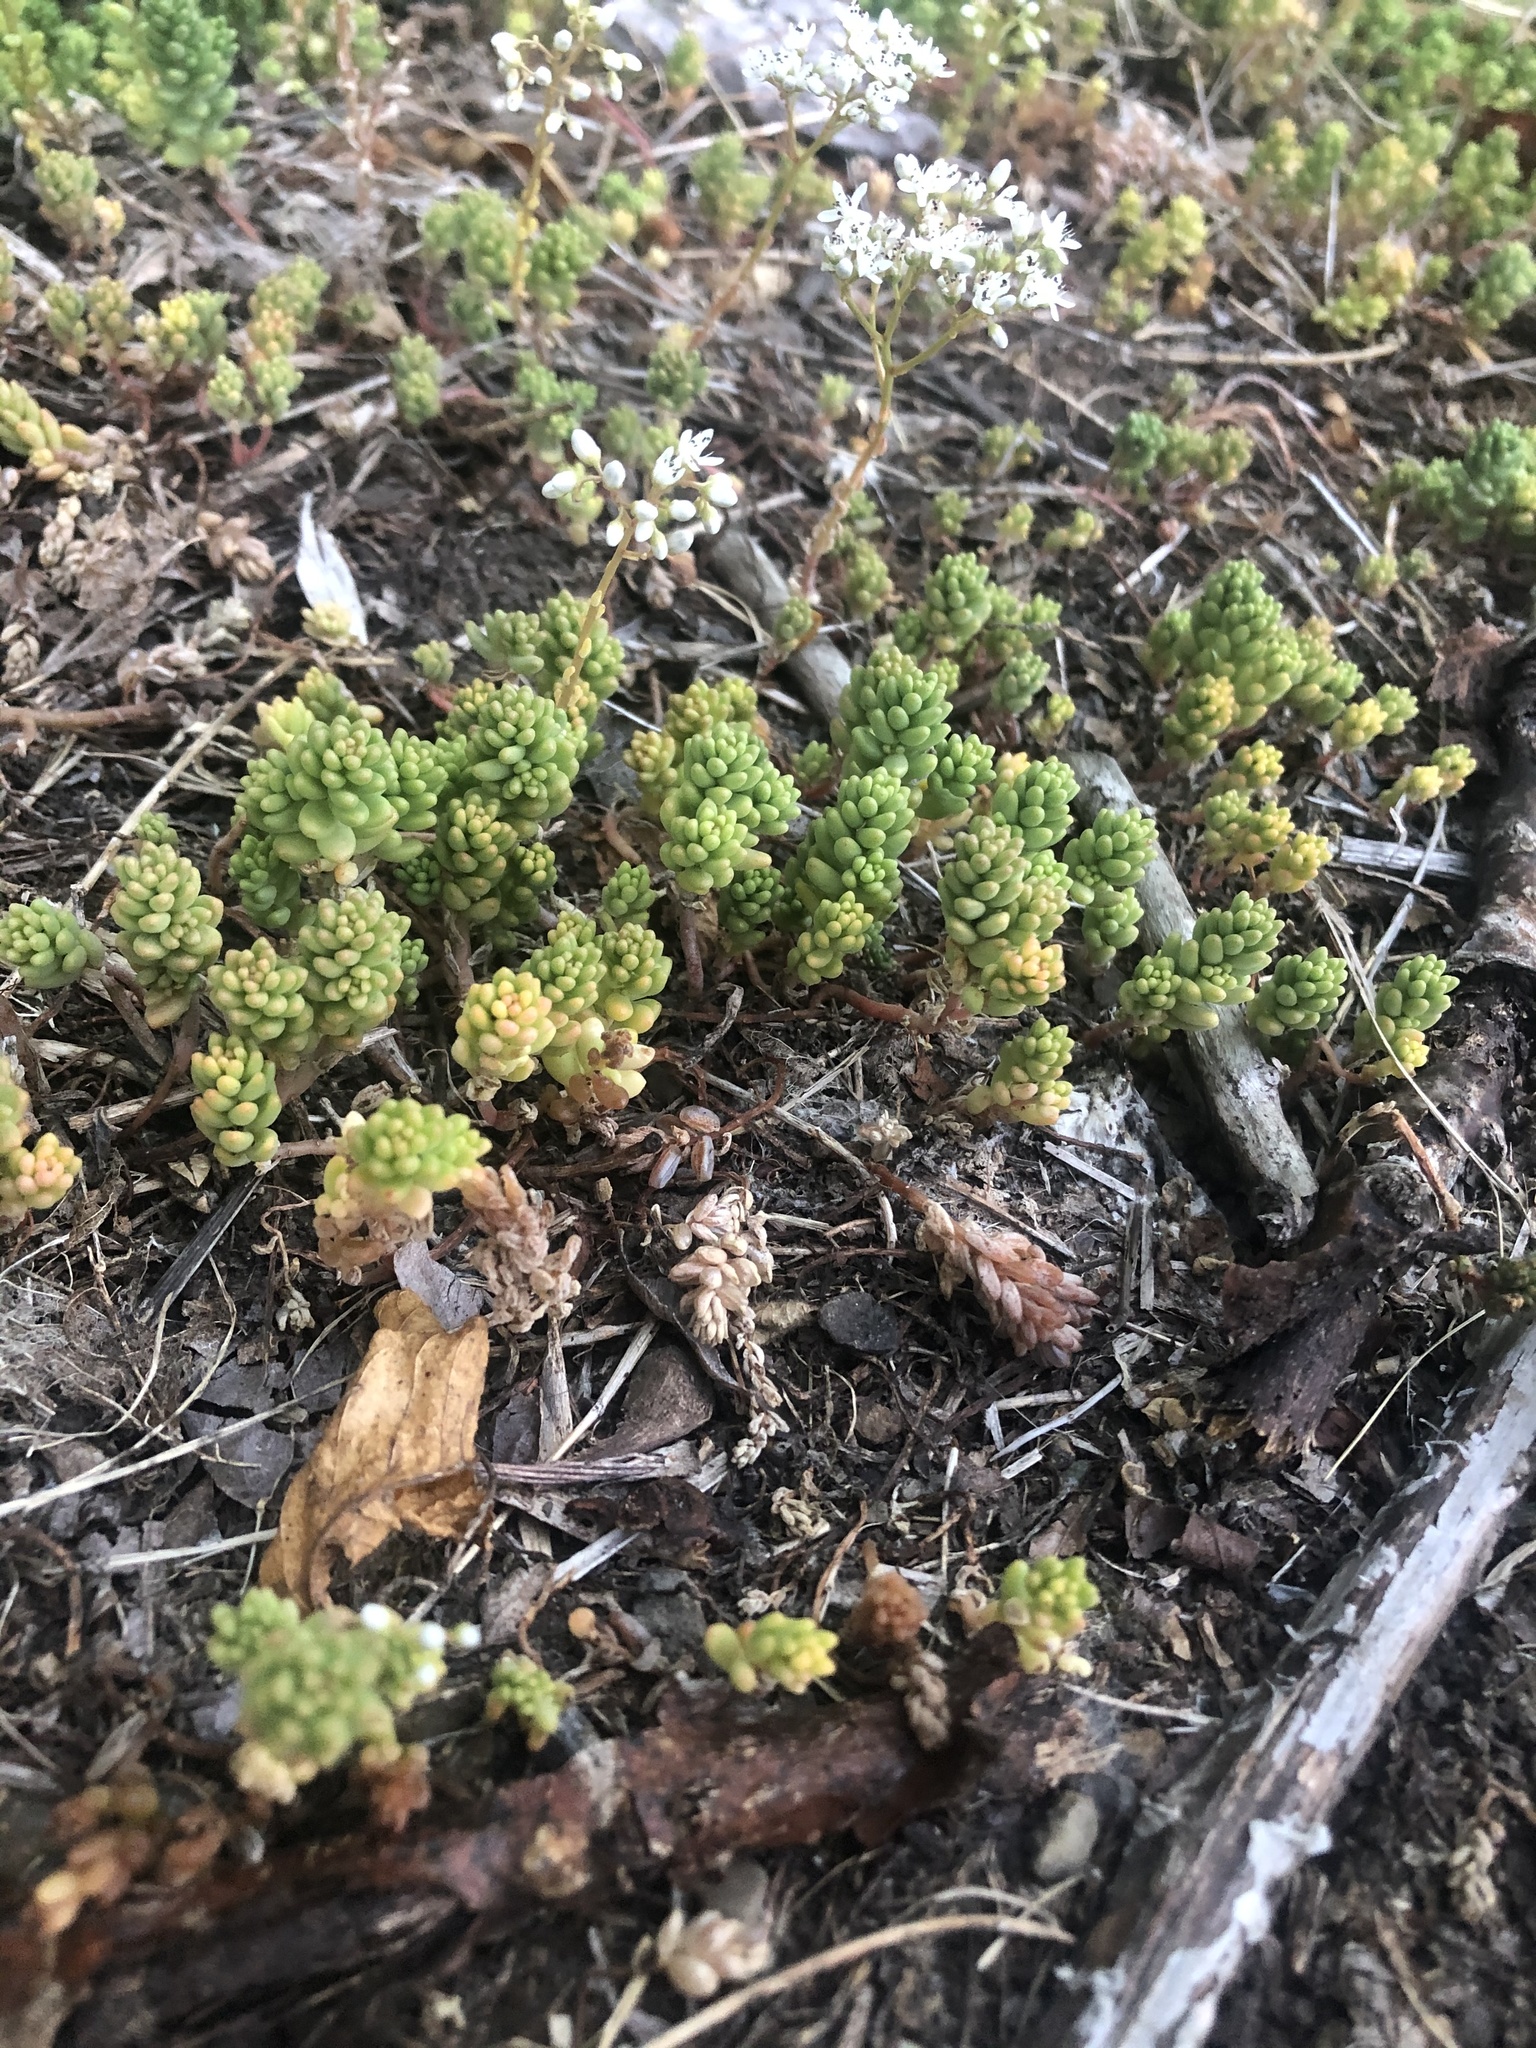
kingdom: Plantae
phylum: Tracheophyta
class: Magnoliopsida
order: Saxifragales
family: Crassulaceae
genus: Sedum
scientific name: Sedum album
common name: White stonecrop
